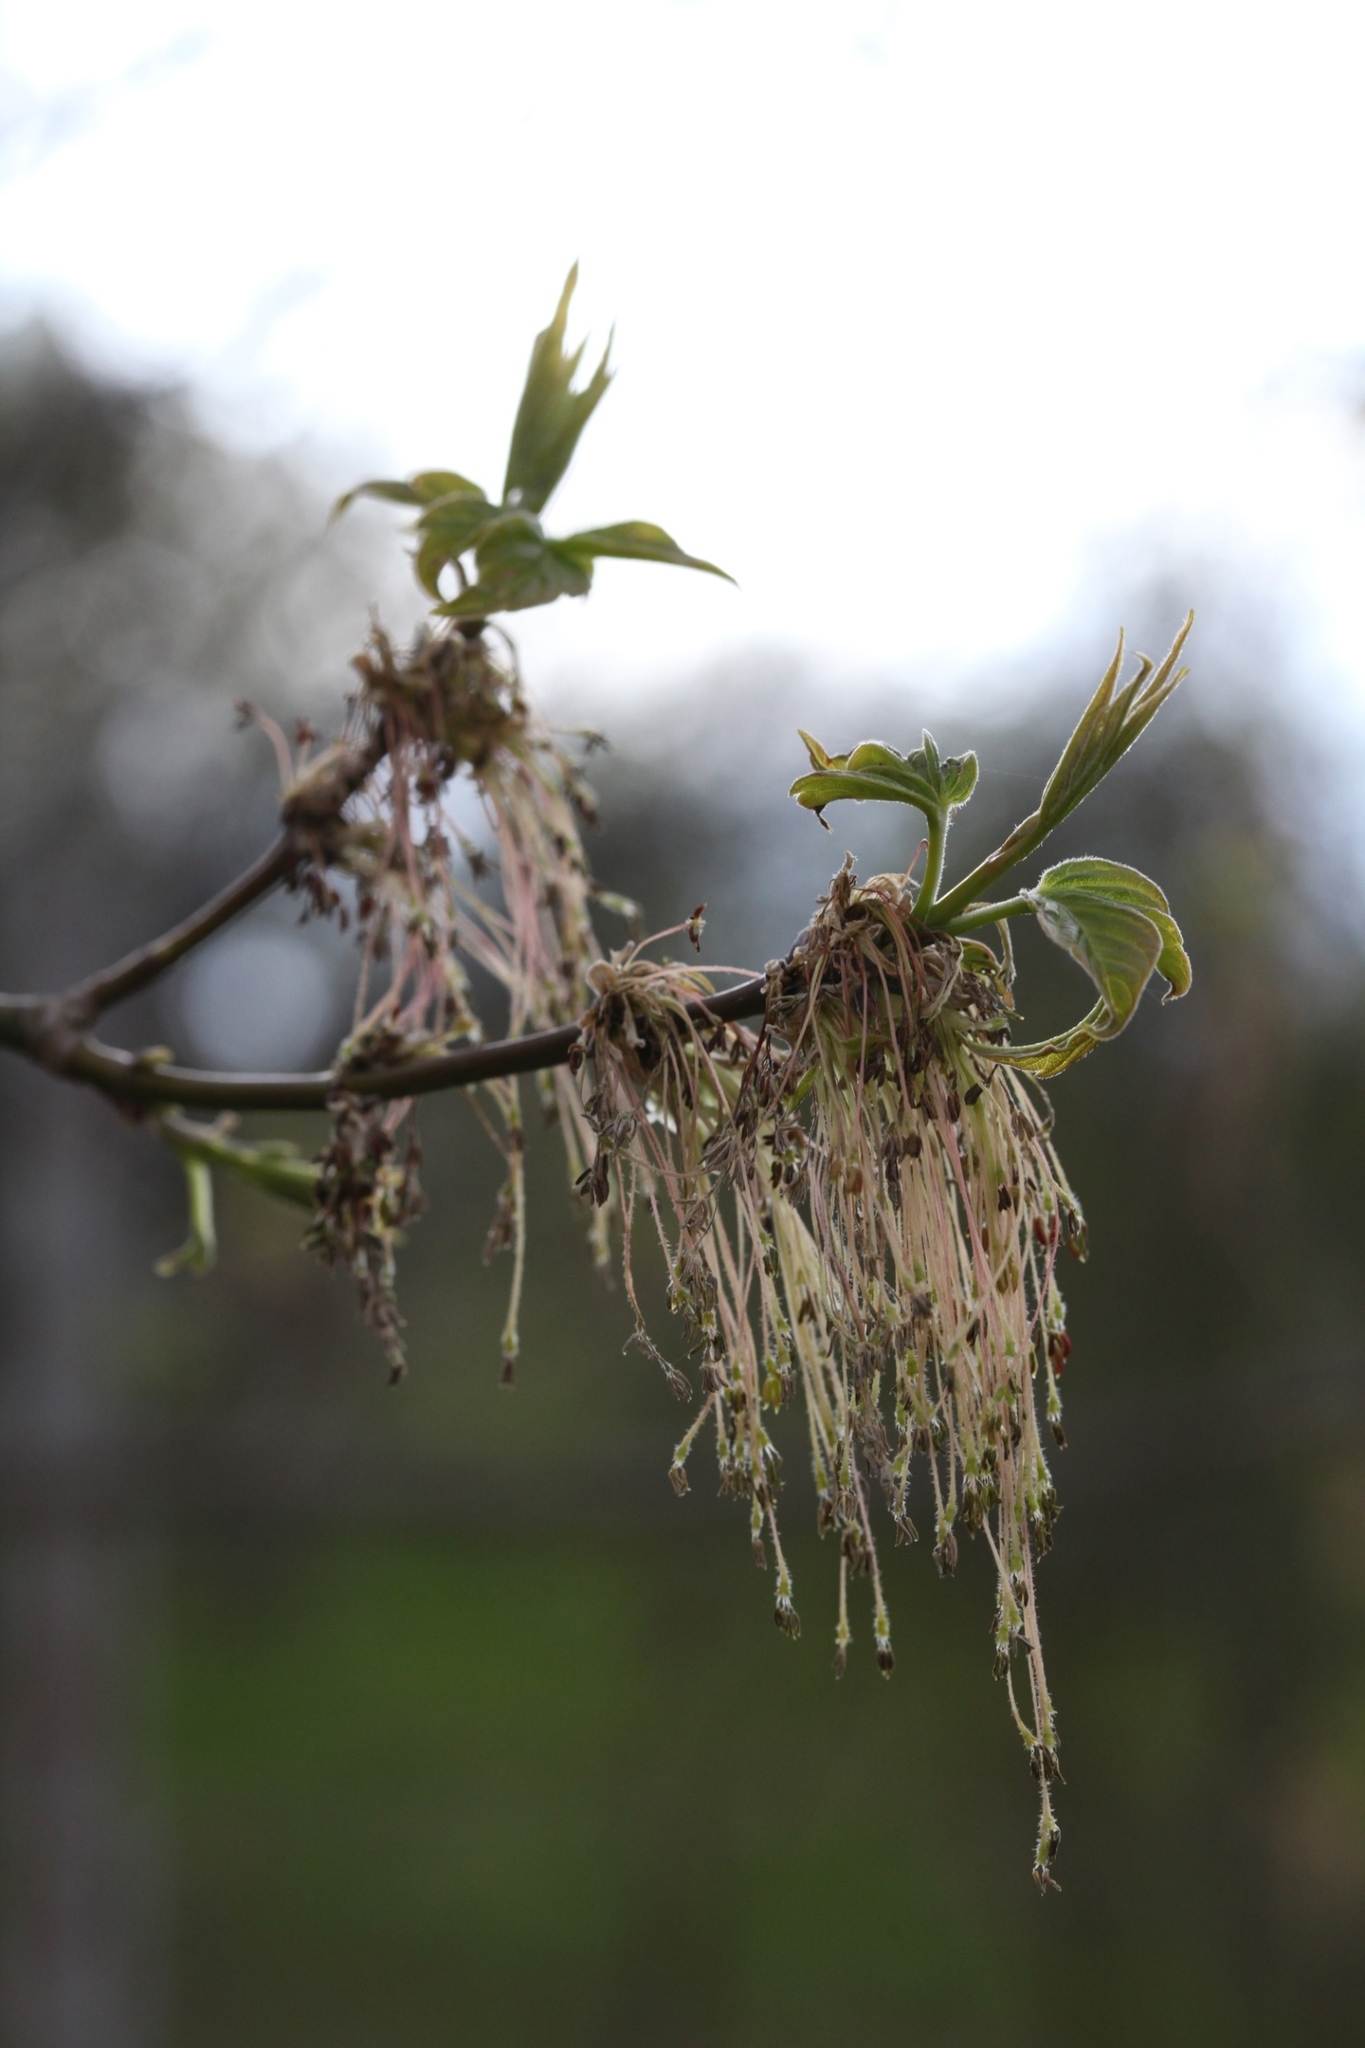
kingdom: Plantae
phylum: Tracheophyta
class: Magnoliopsida
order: Sapindales
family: Sapindaceae
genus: Acer
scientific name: Acer negundo
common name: Ashleaf maple
